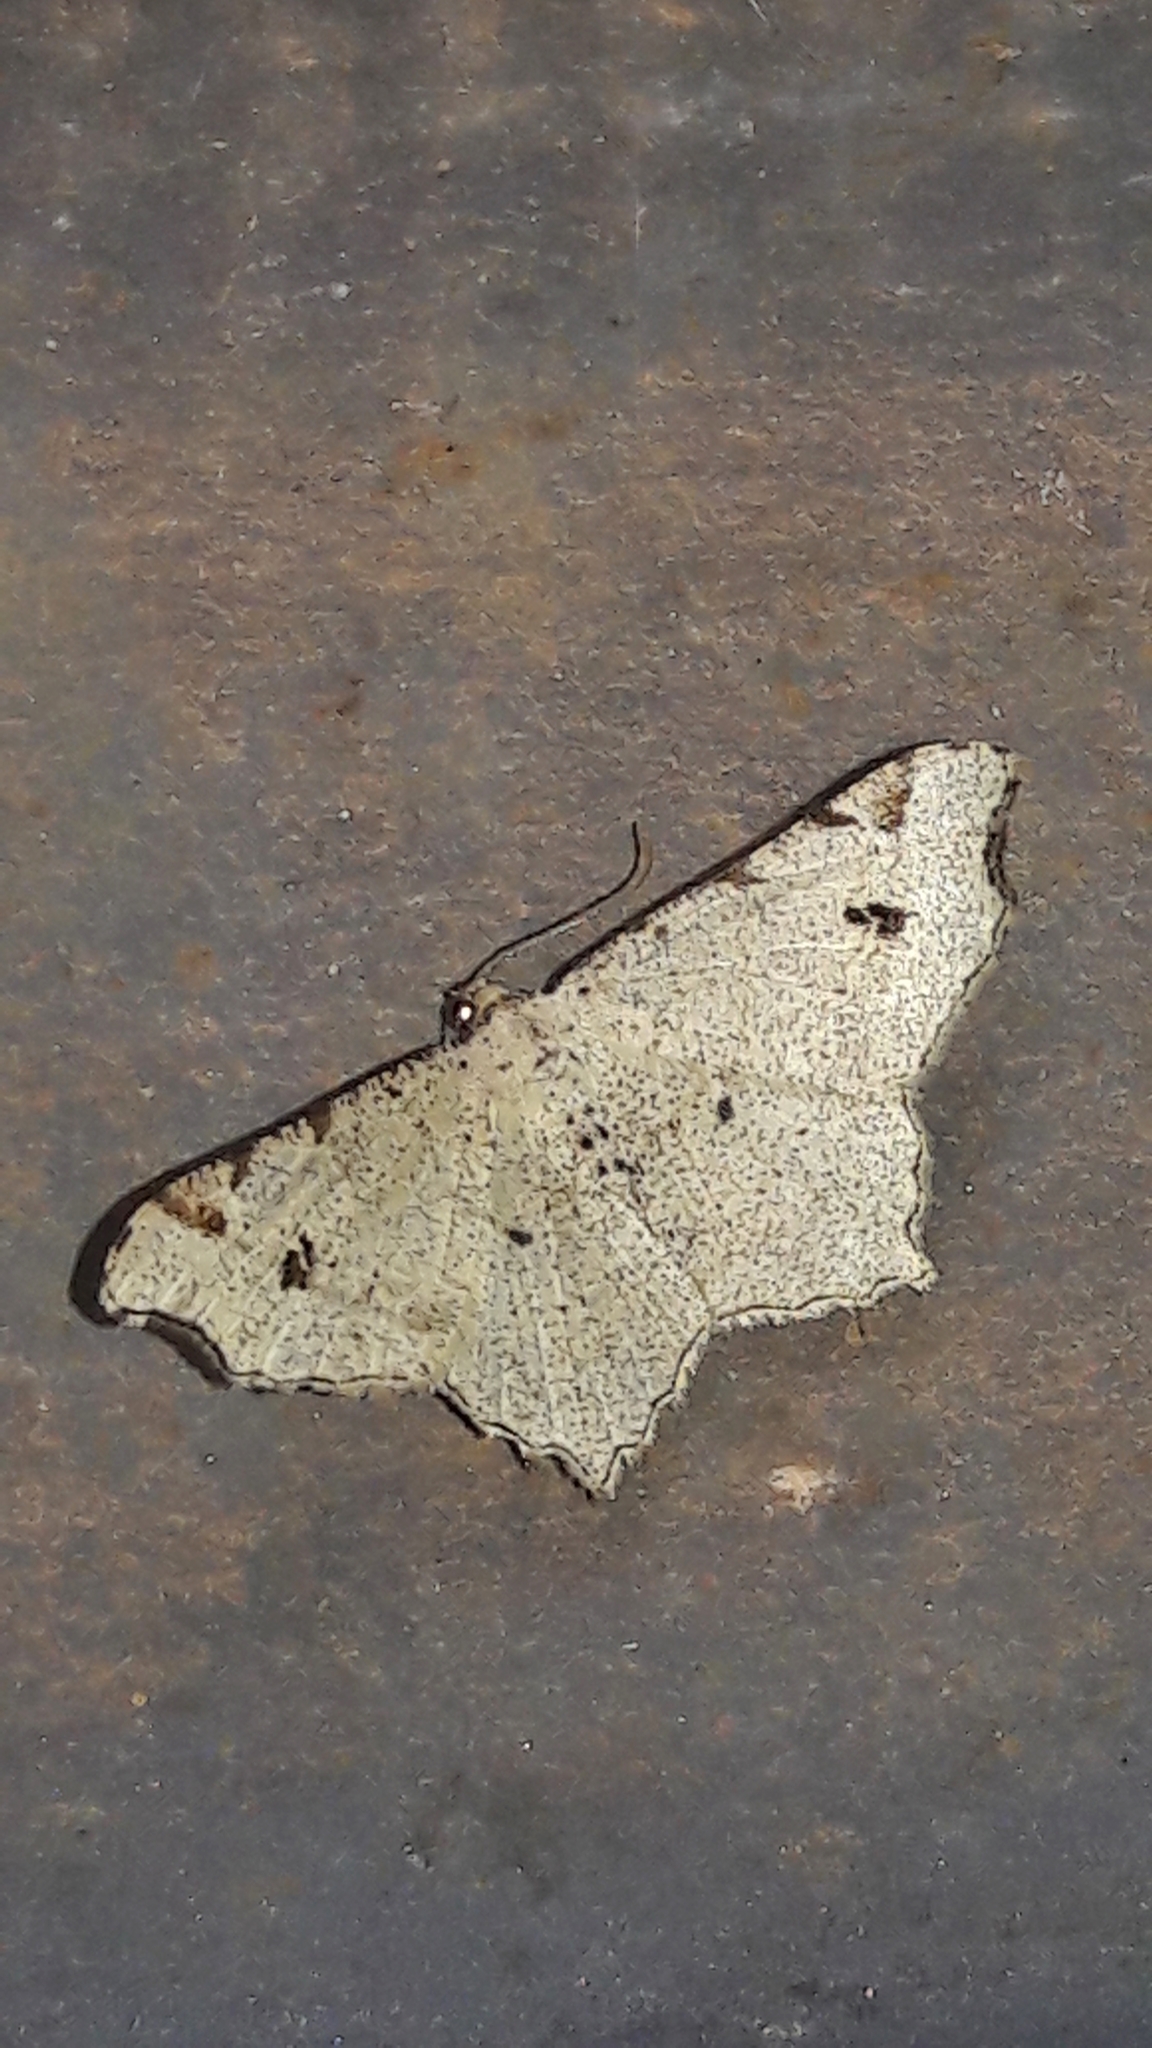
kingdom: Animalia
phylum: Arthropoda
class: Insecta
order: Lepidoptera
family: Geometridae
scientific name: Geometridae
